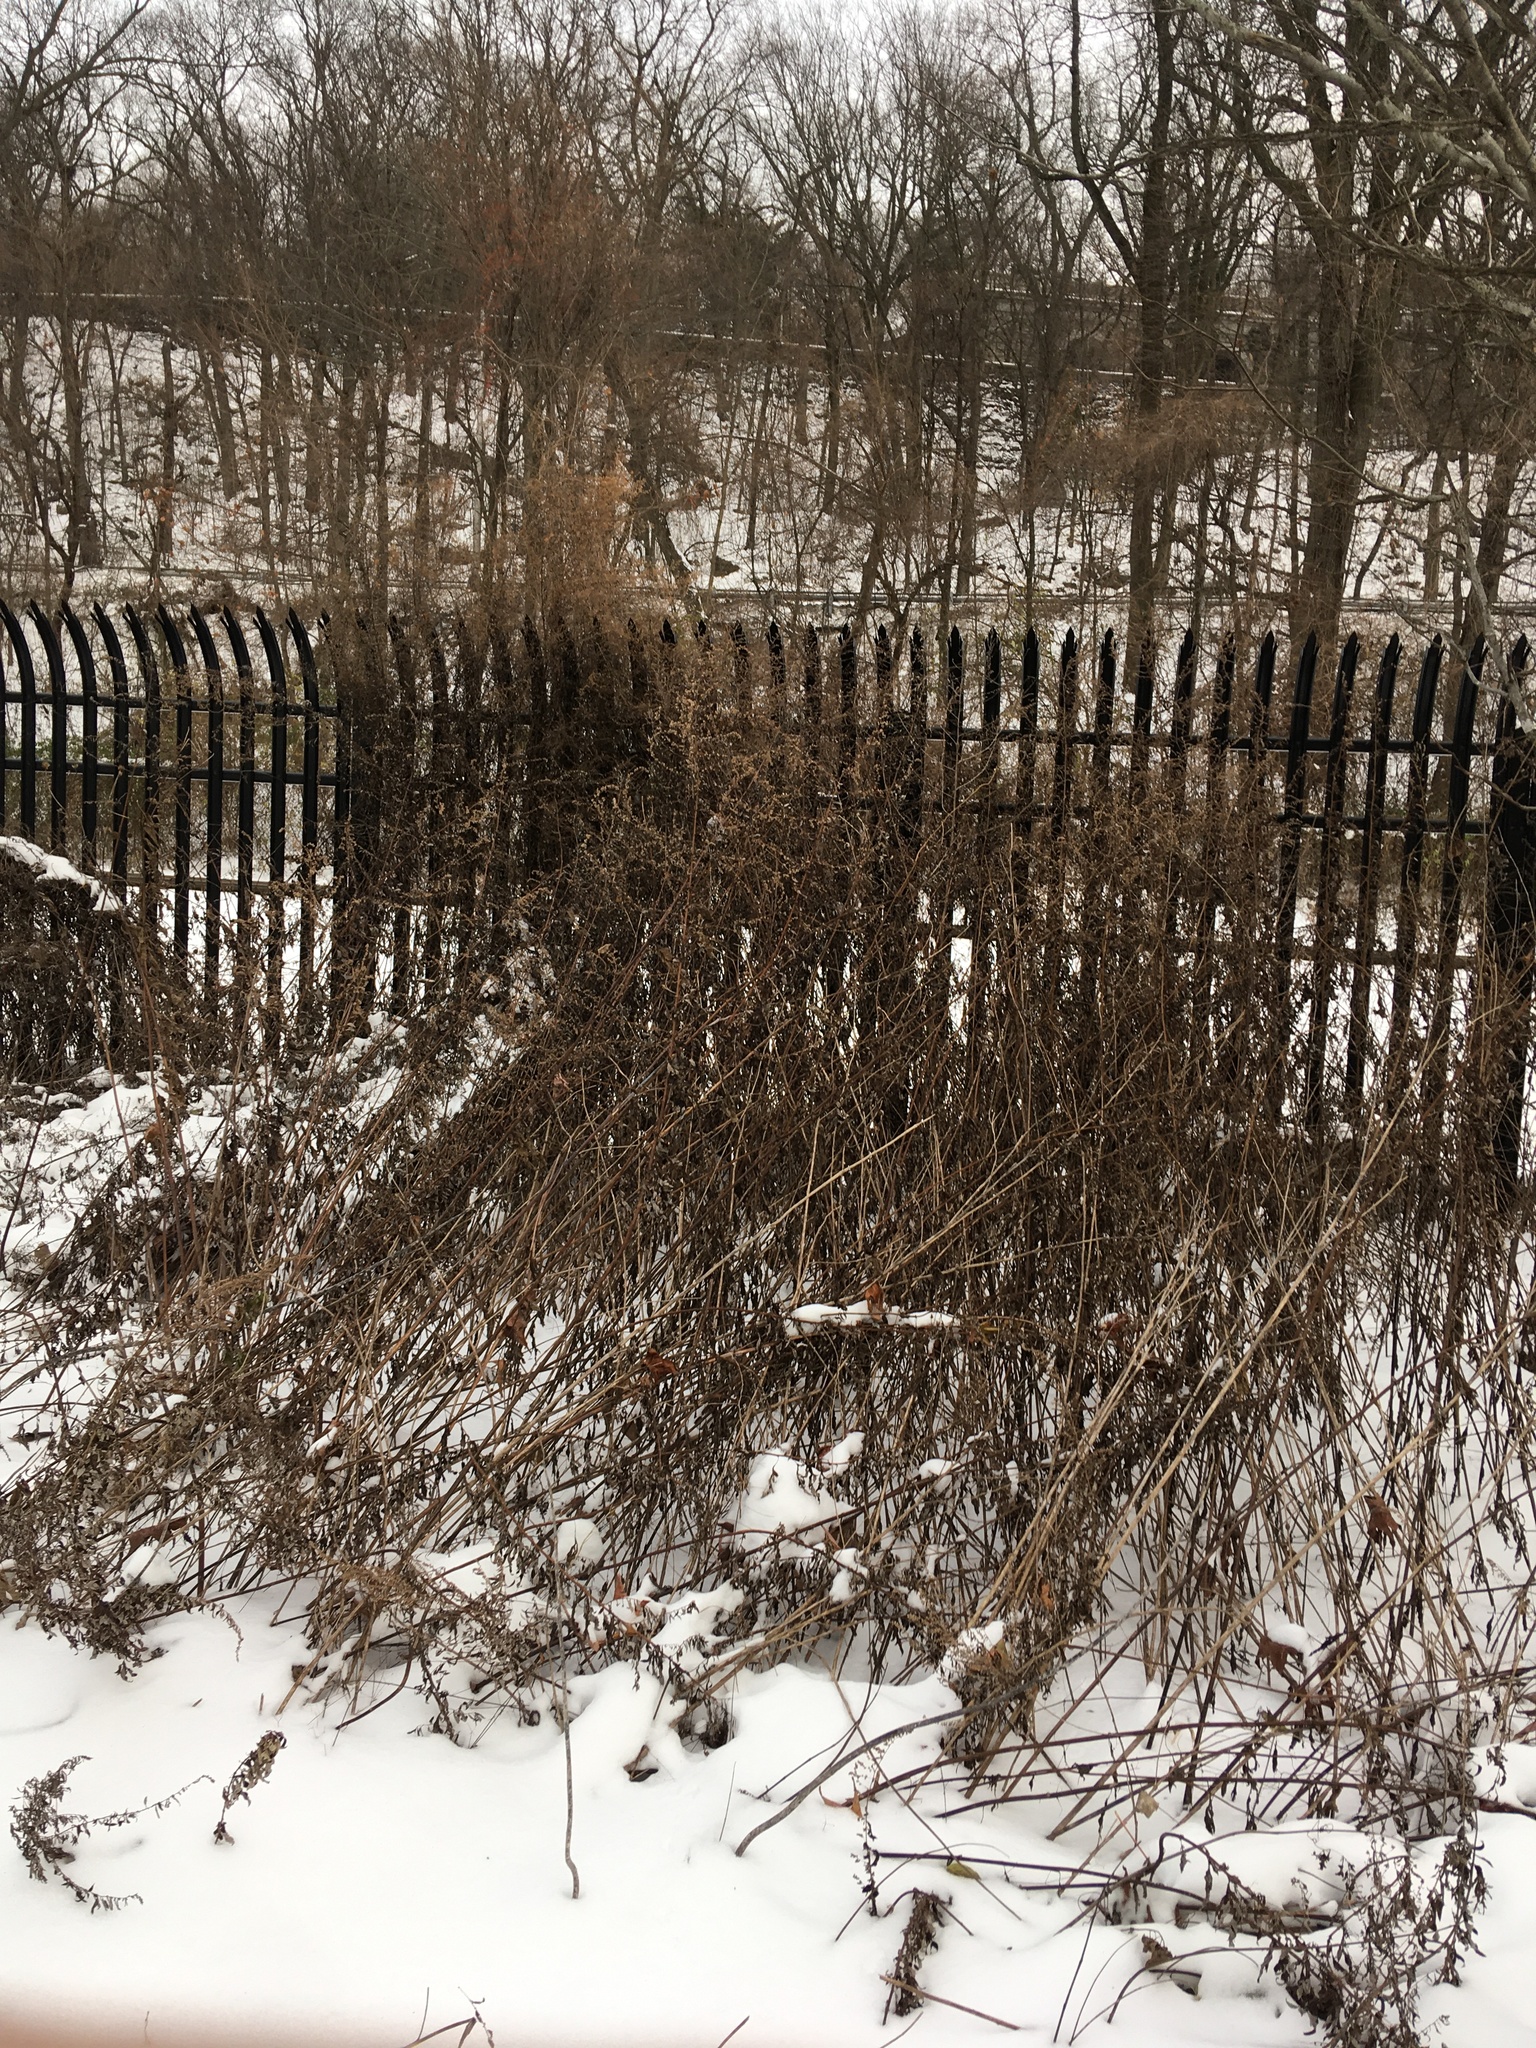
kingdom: Plantae
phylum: Tracheophyta
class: Magnoliopsida
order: Asterales
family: Asteraceae
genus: Artemisia
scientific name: Artemisia vulgaris
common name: Mugwort
